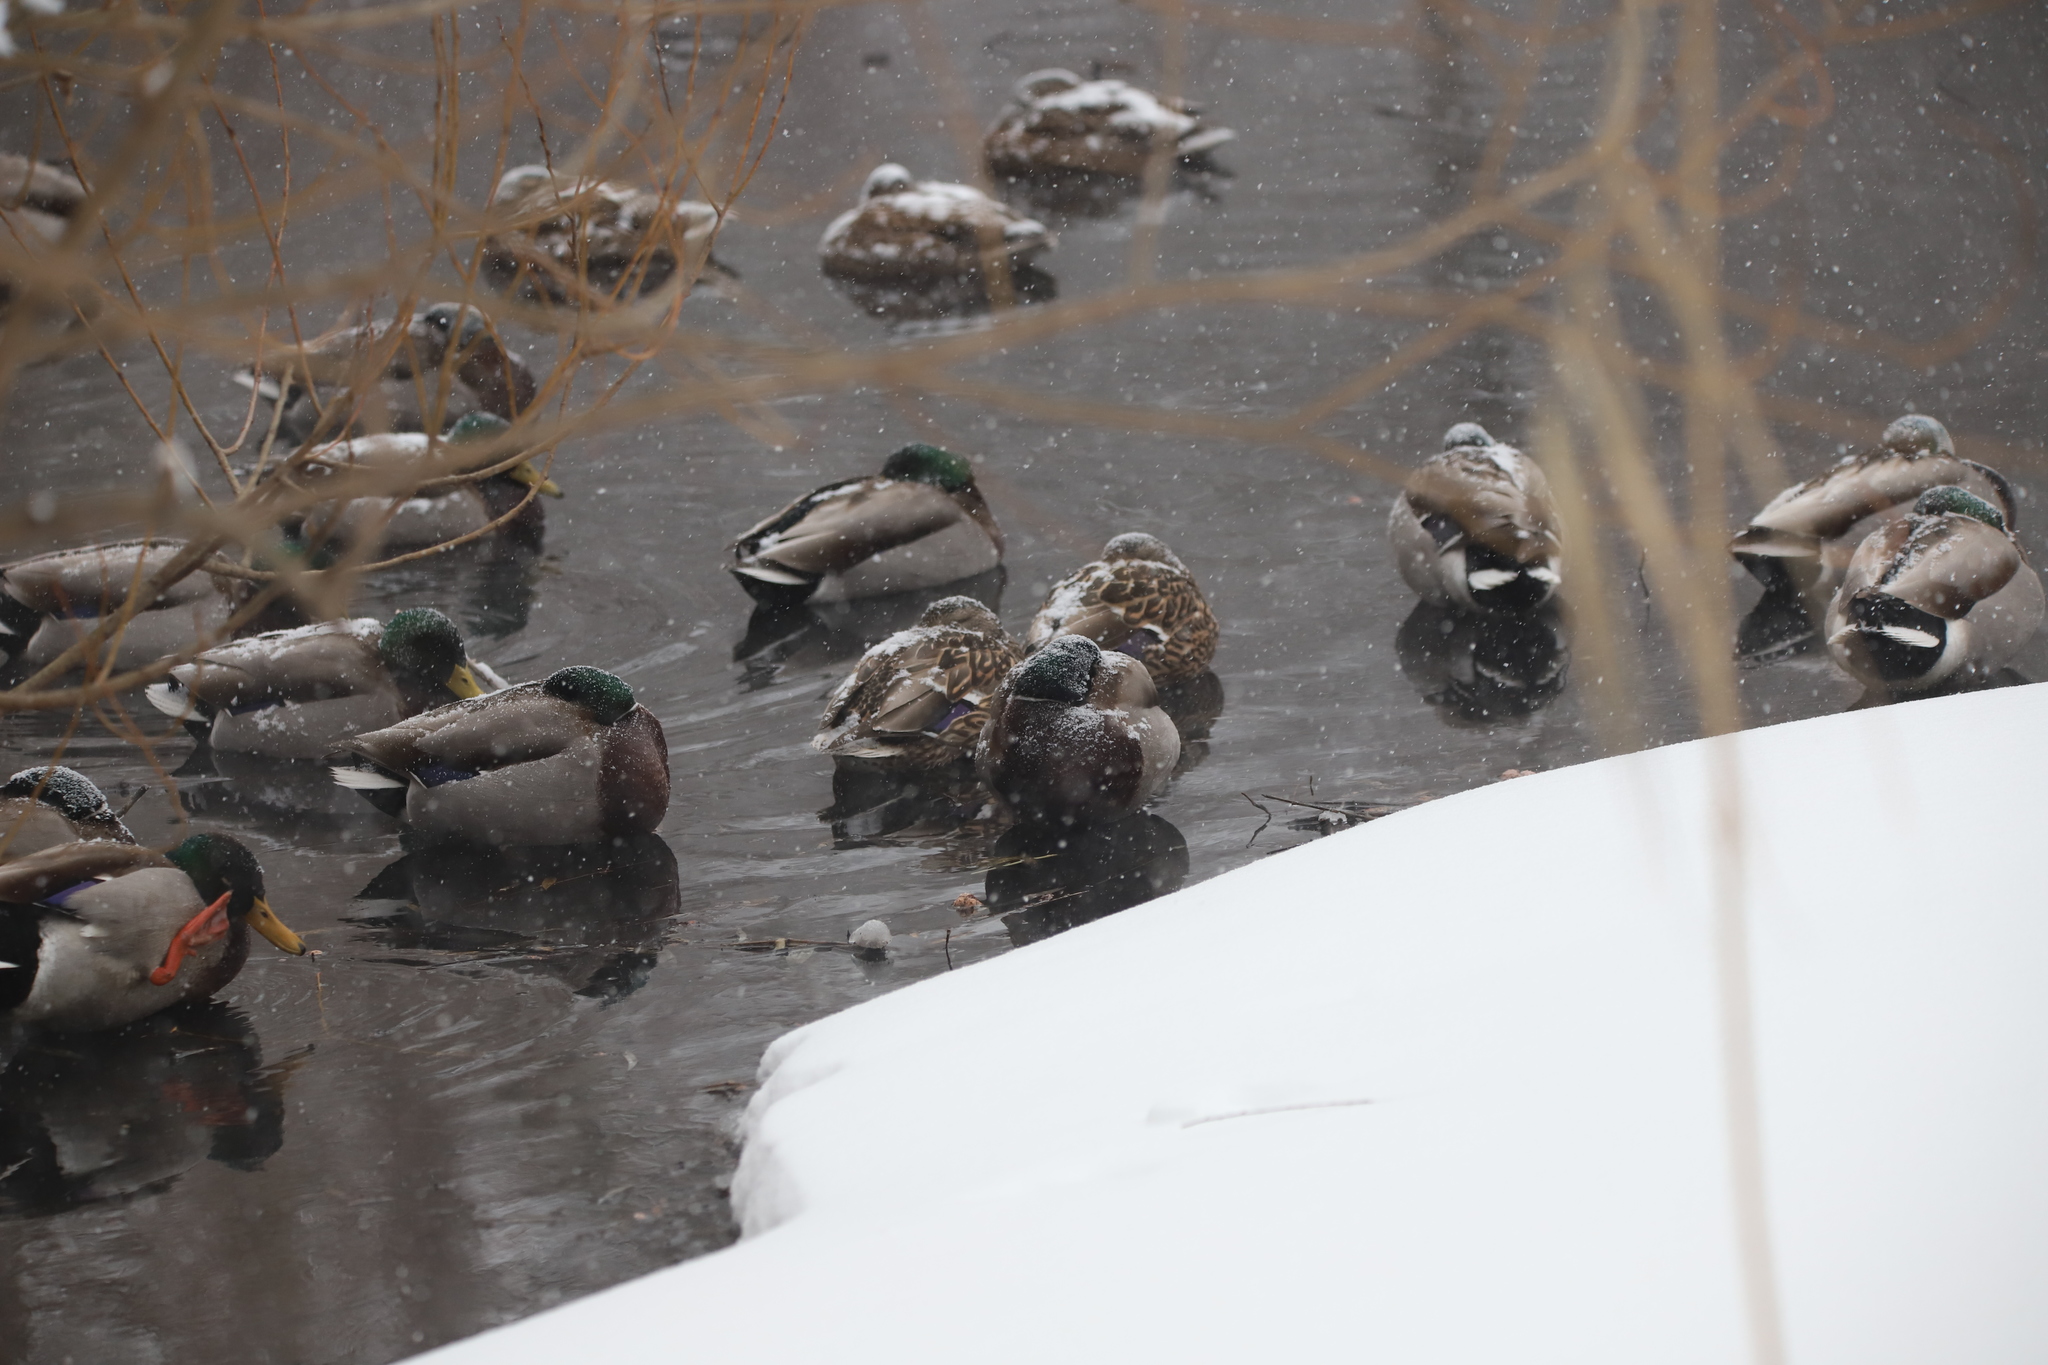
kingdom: Animalia
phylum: Chordata
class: Aves
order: Anseriformes
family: Anatidae
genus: Anas
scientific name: Anas platyrhynchos
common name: Mallard
